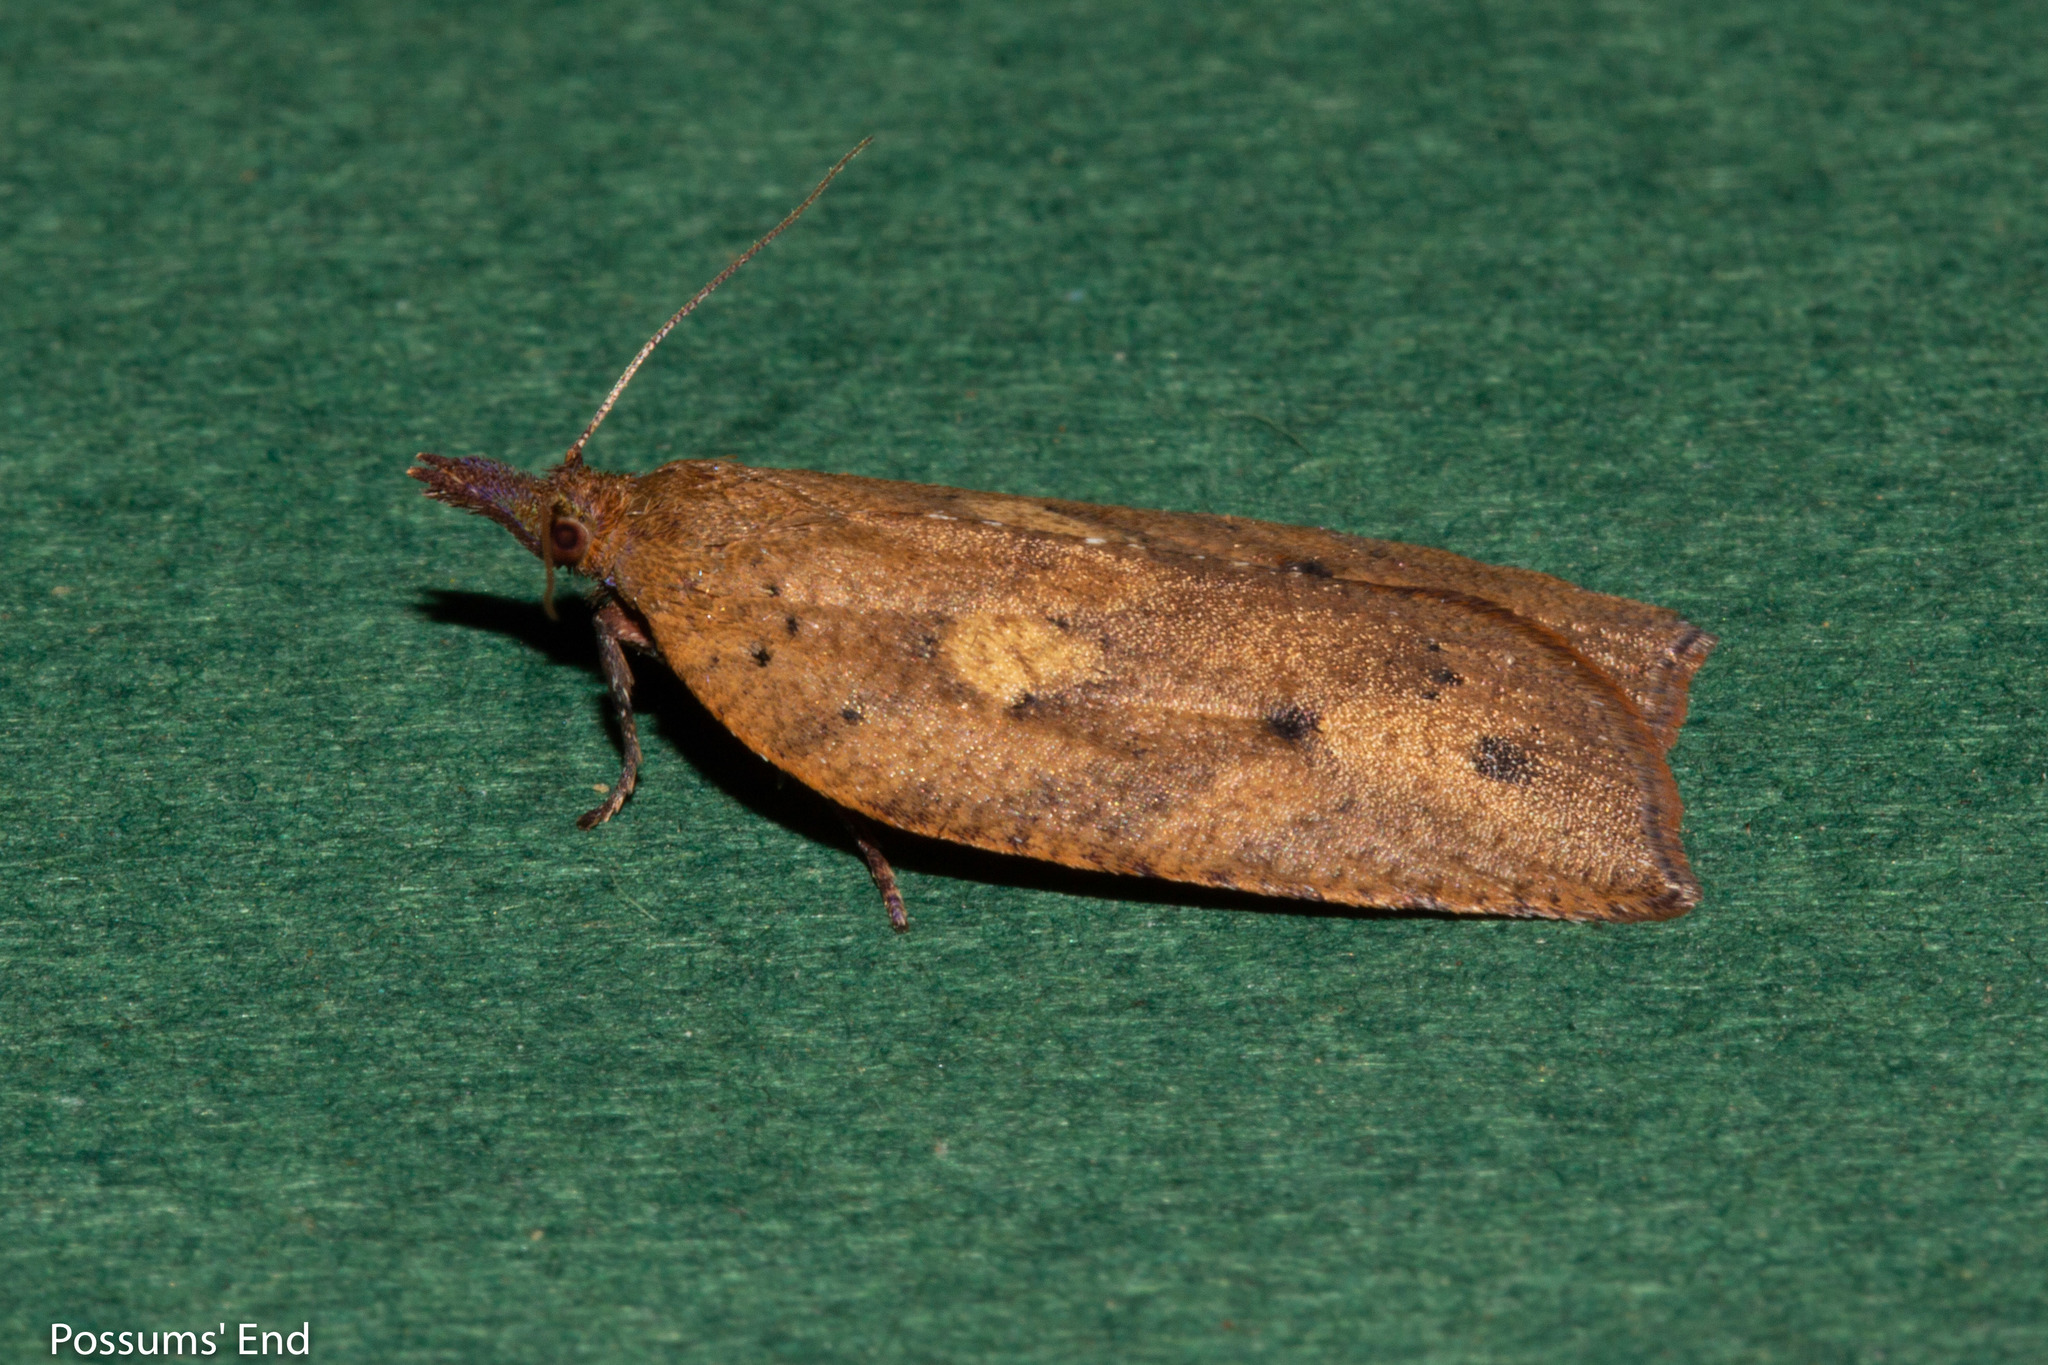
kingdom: Animalia
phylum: Arthropoda
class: Insecta
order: Lepidoptera
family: Tortricidae
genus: Planotortrix
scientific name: Planotortrix excessana
